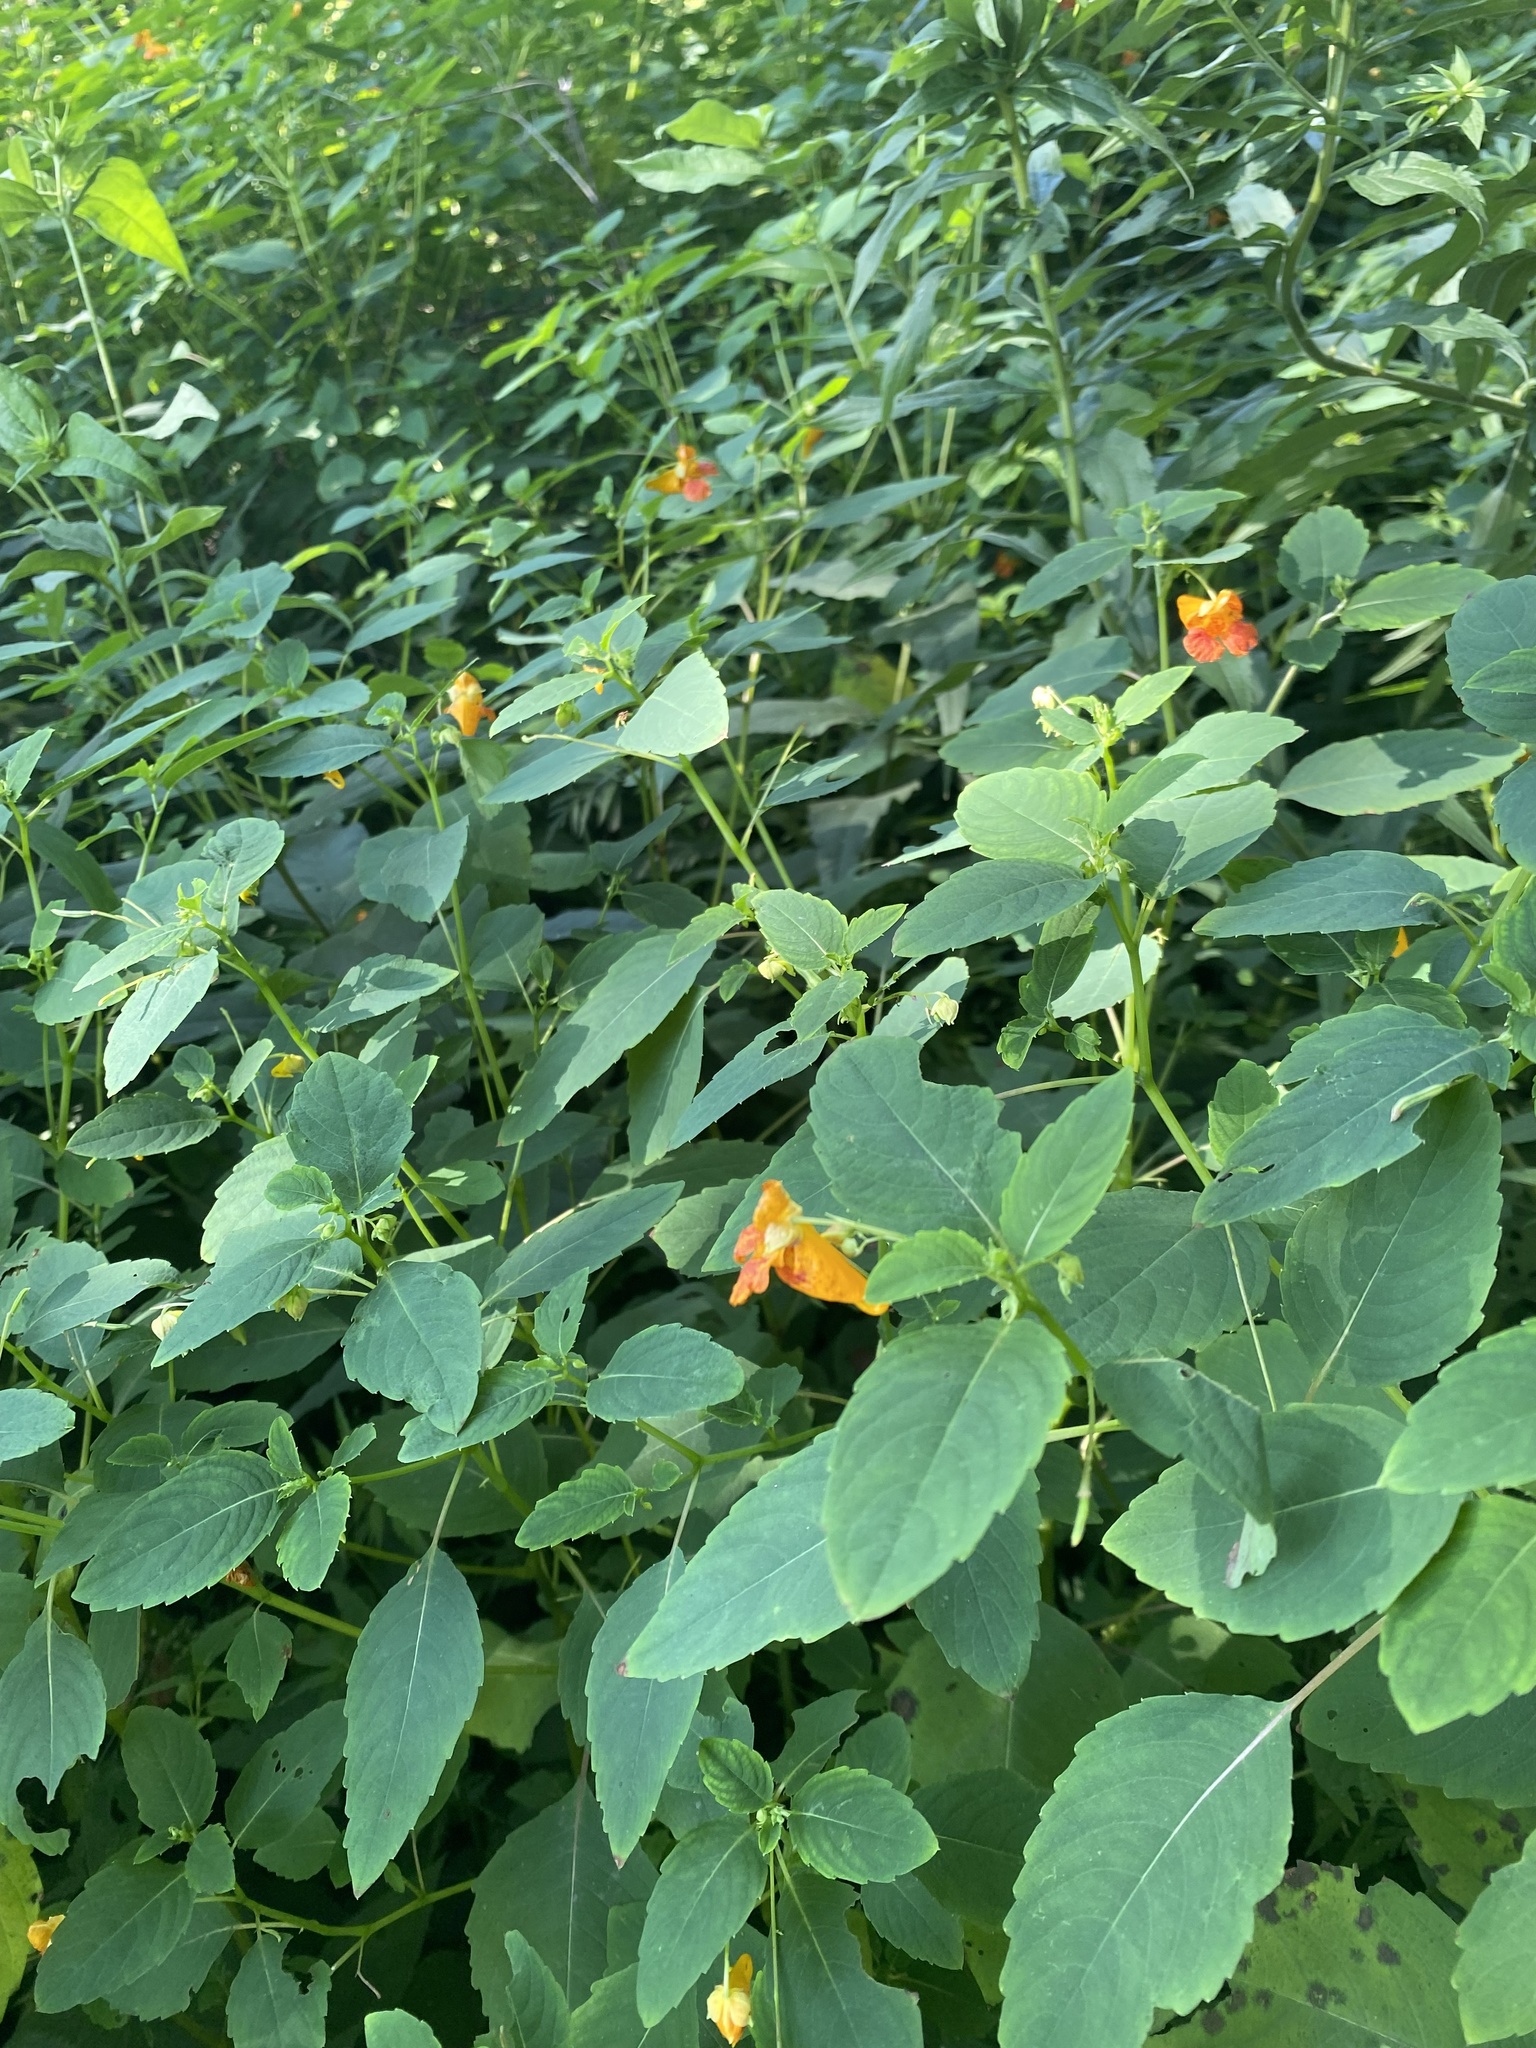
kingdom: Plantae
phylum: Tracheophyta
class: Magnoliopsida
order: Ericales
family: Balsaminaceae
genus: Impatiens
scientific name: Impatiens capensis
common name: Orange balsam
